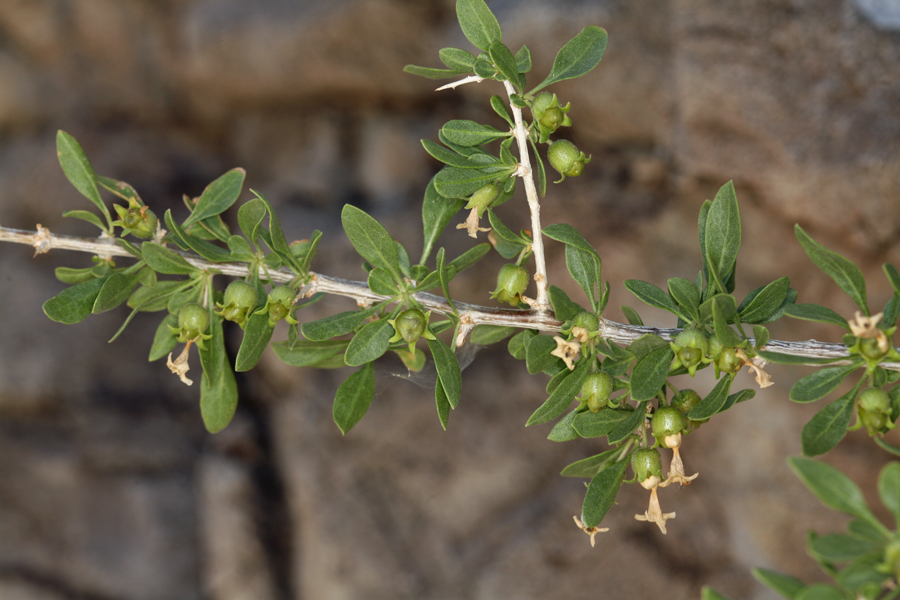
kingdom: Plantae
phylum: Tracheophyta
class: Magnoliopsida
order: Solanales
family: Solanaceae
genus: Lycium
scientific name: Lycium cooperi
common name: Peachthorn
